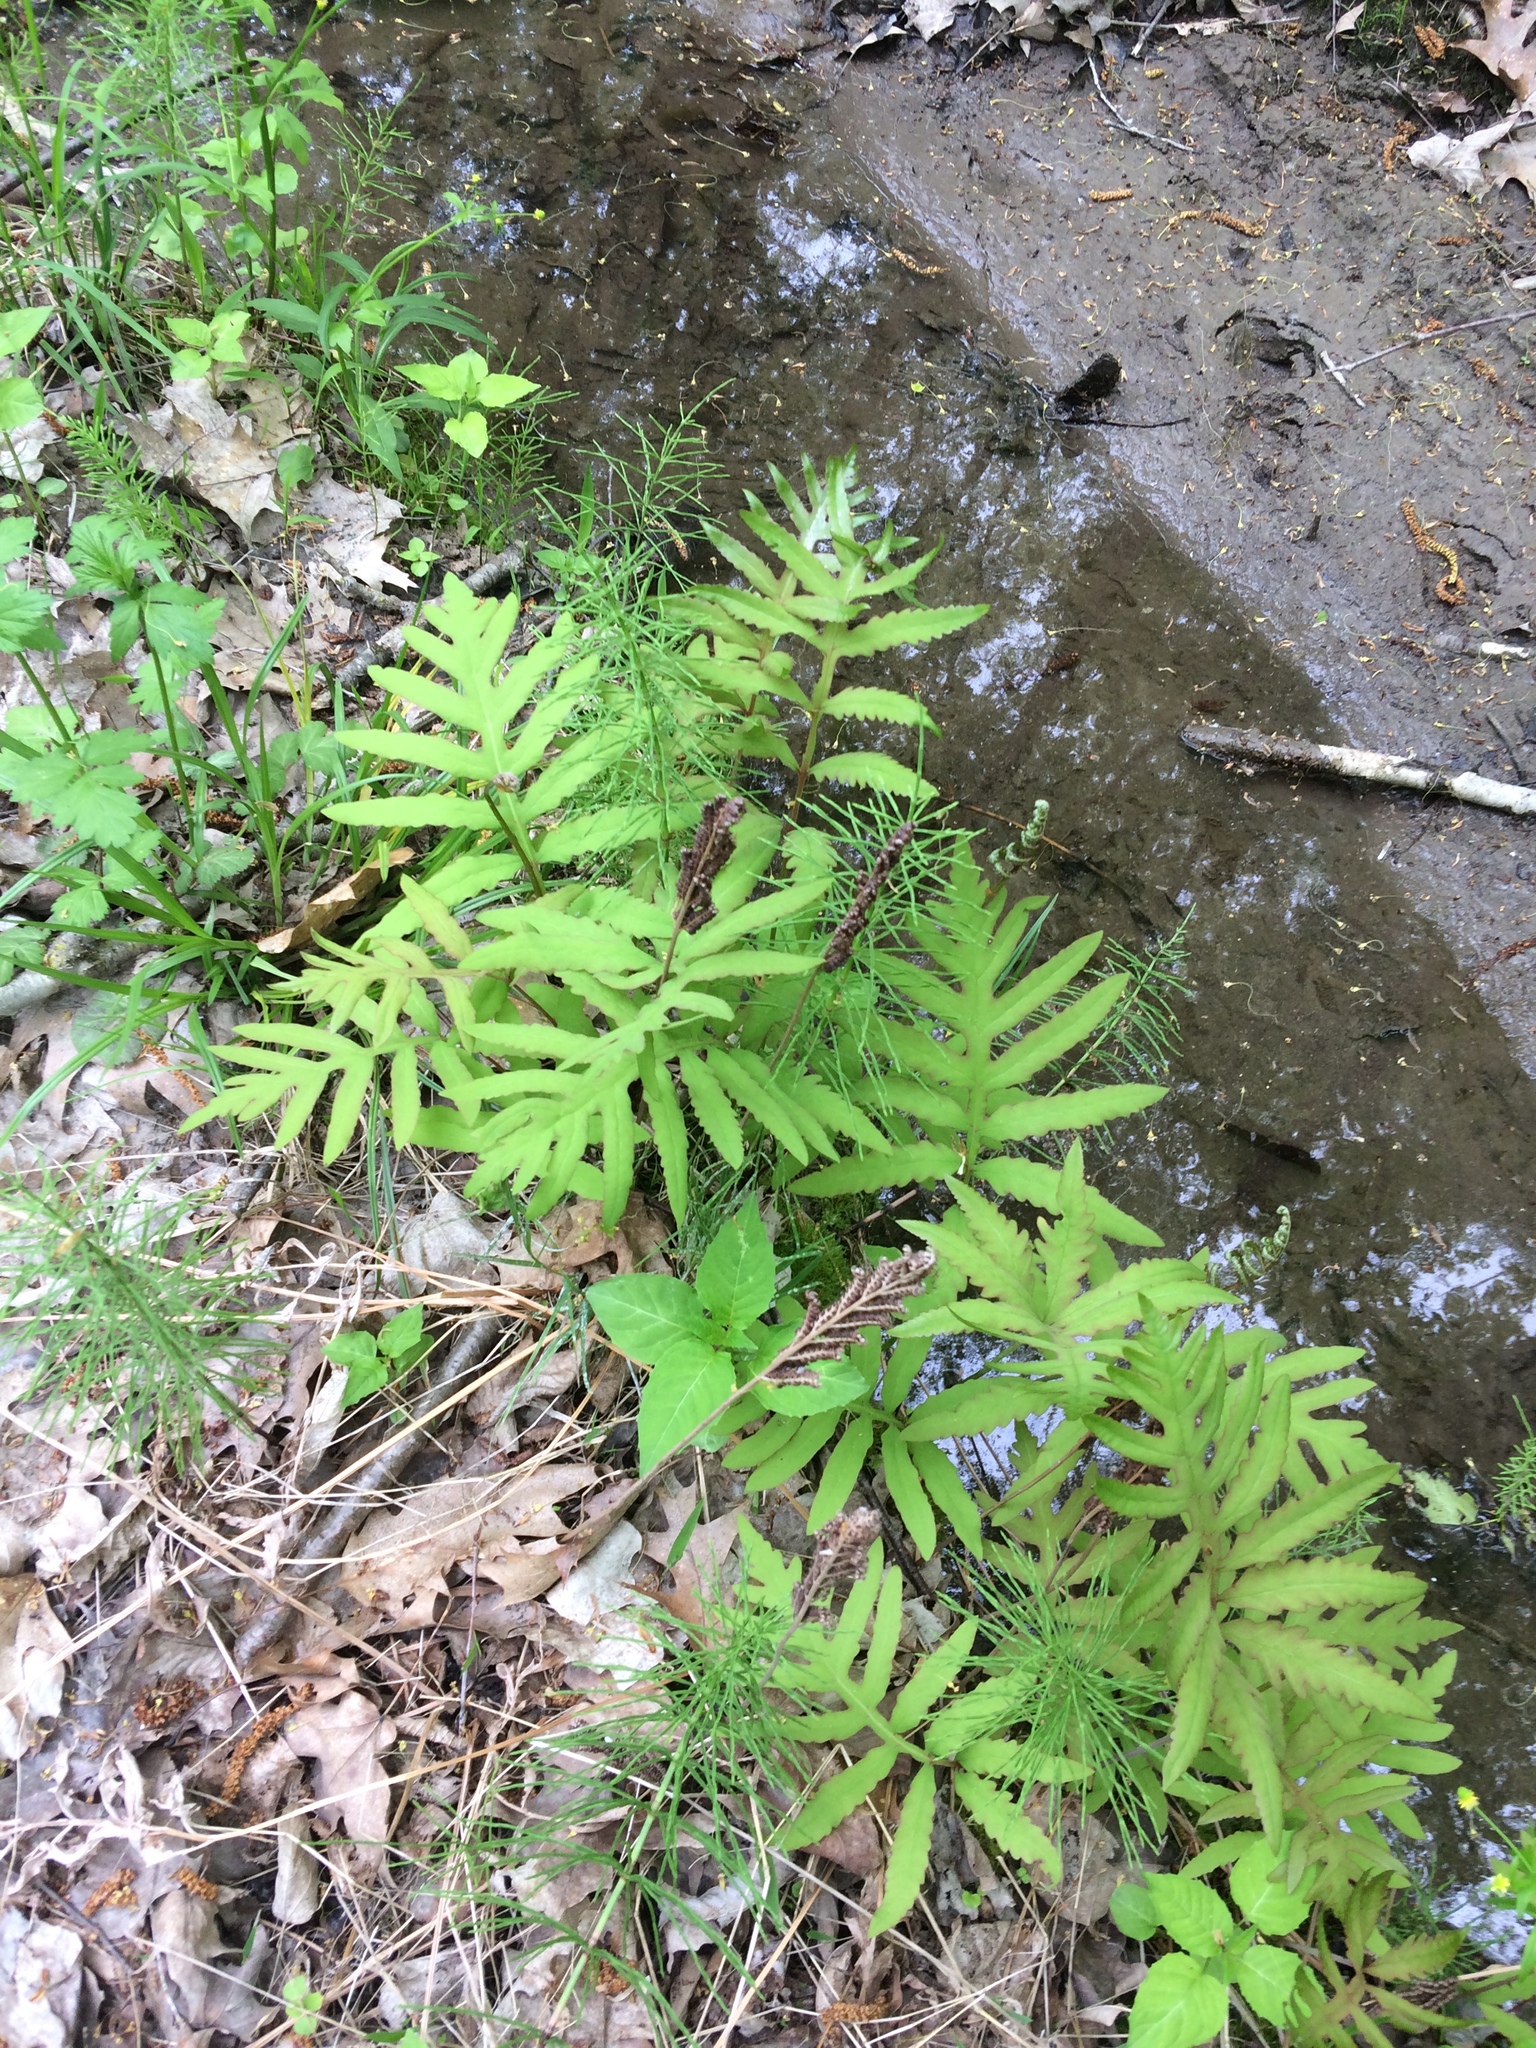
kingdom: Plantae
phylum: Tracheophyta
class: Polypodiopsida
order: Polypodiales
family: Onocleaceae
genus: Onoclea
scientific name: Onoclea sensibilis
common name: Sensitive fern
